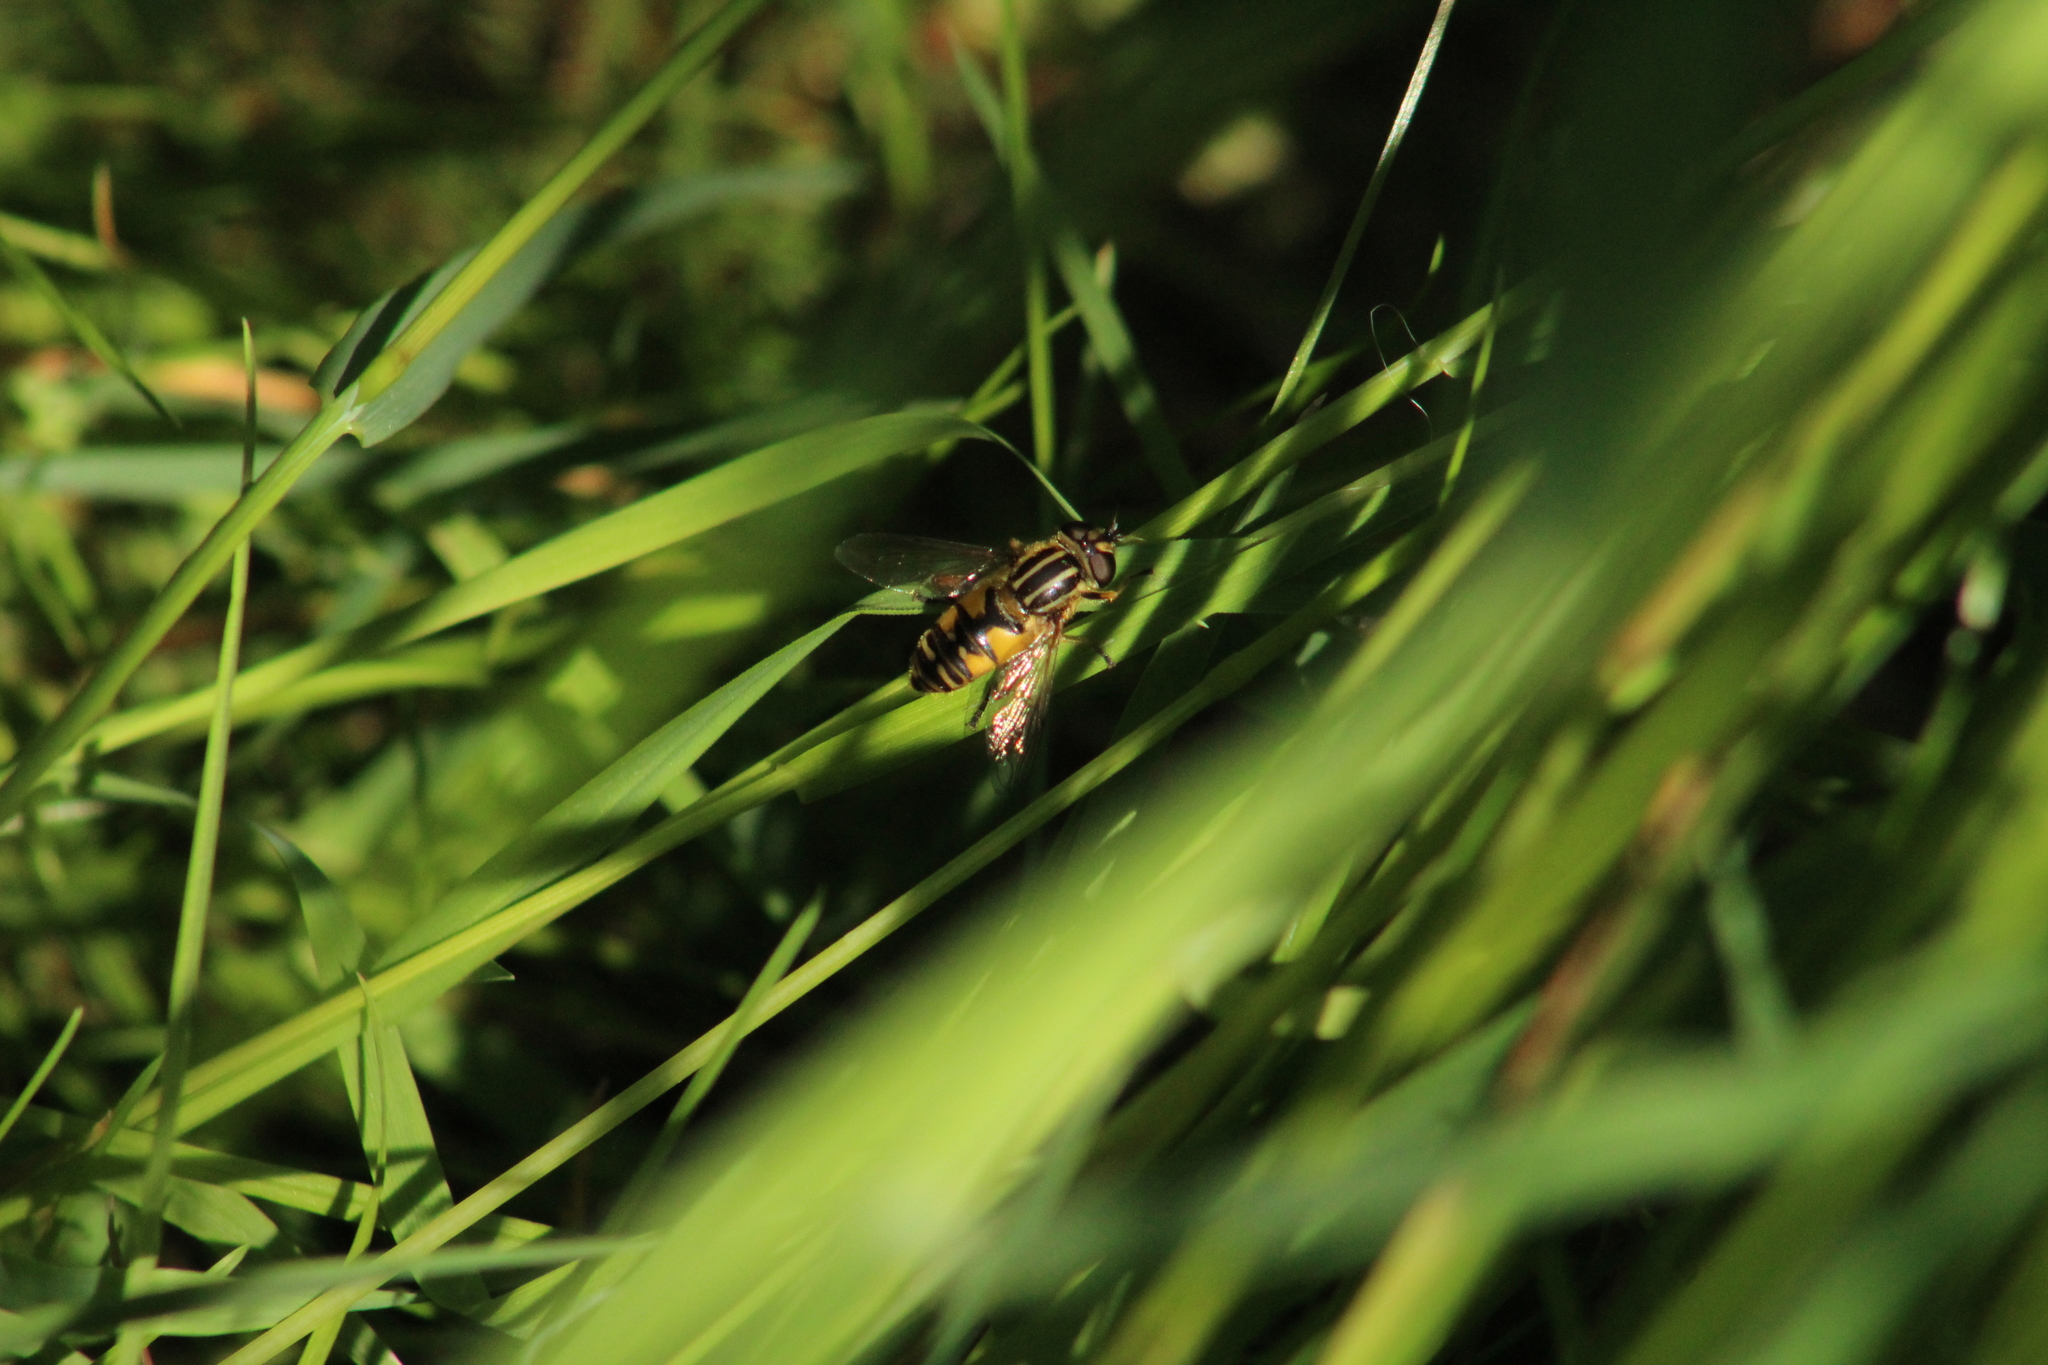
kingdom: Animalia
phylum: Arthropoda
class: Insecta
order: Diptera
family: Syrphidae
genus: Helophilus
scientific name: Helophilus pendulus
